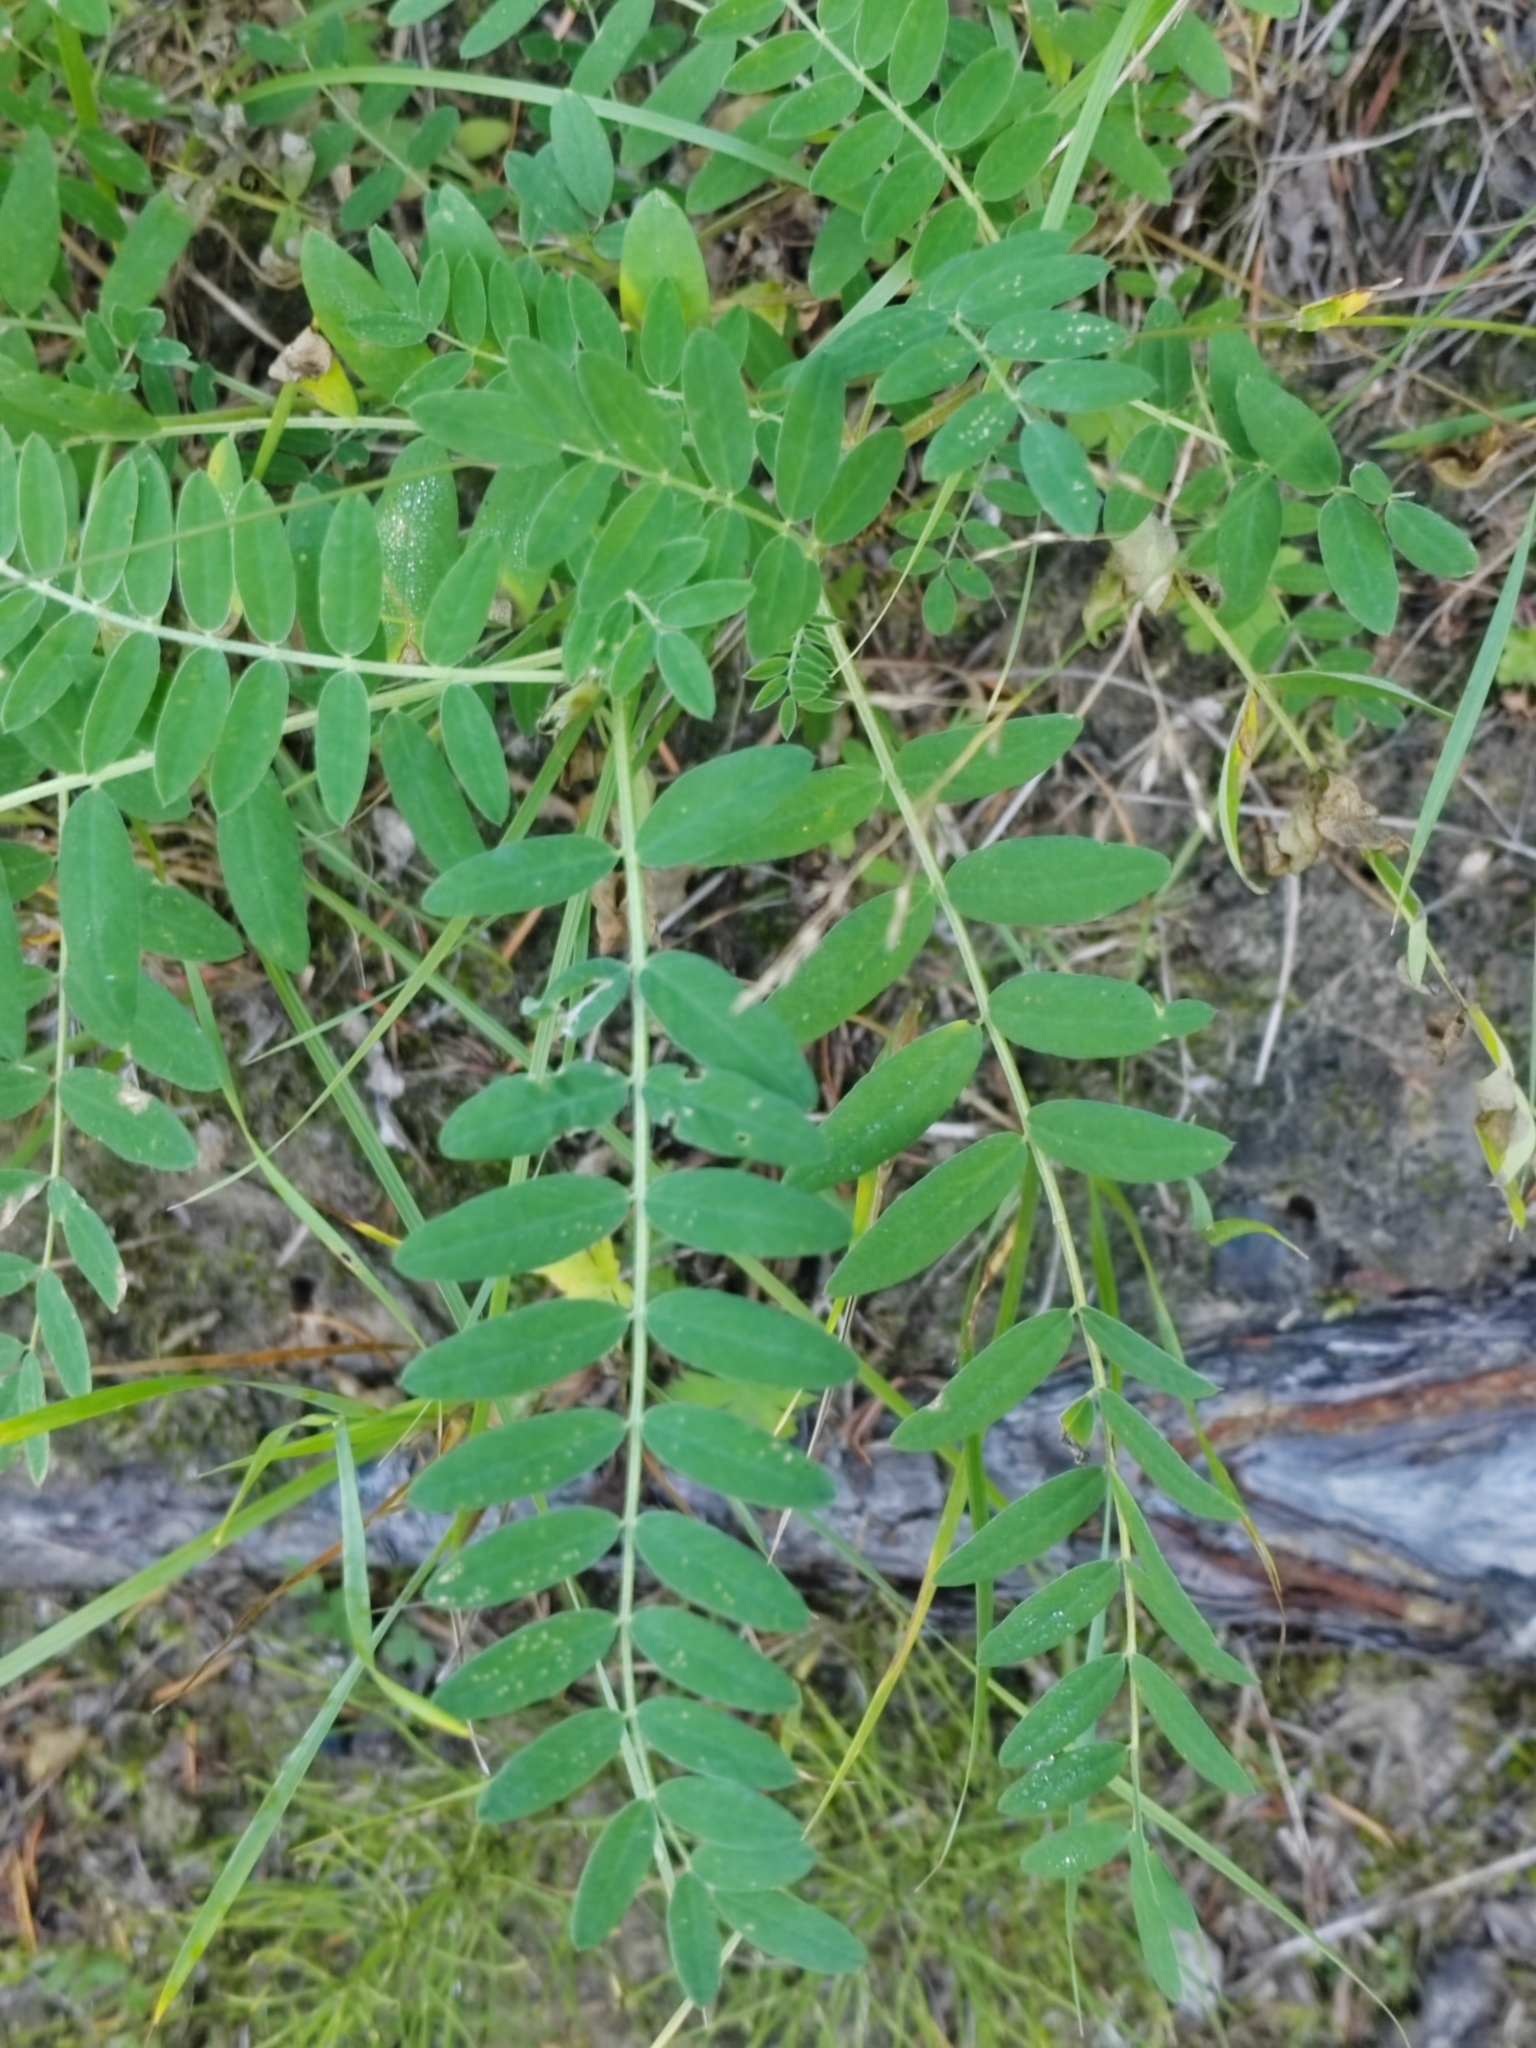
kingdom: Plantae
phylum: Tracheophyta
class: Magnoliopsida
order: Fabales
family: Fabaceae
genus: Astragalus
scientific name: Astragalus uliginosus
